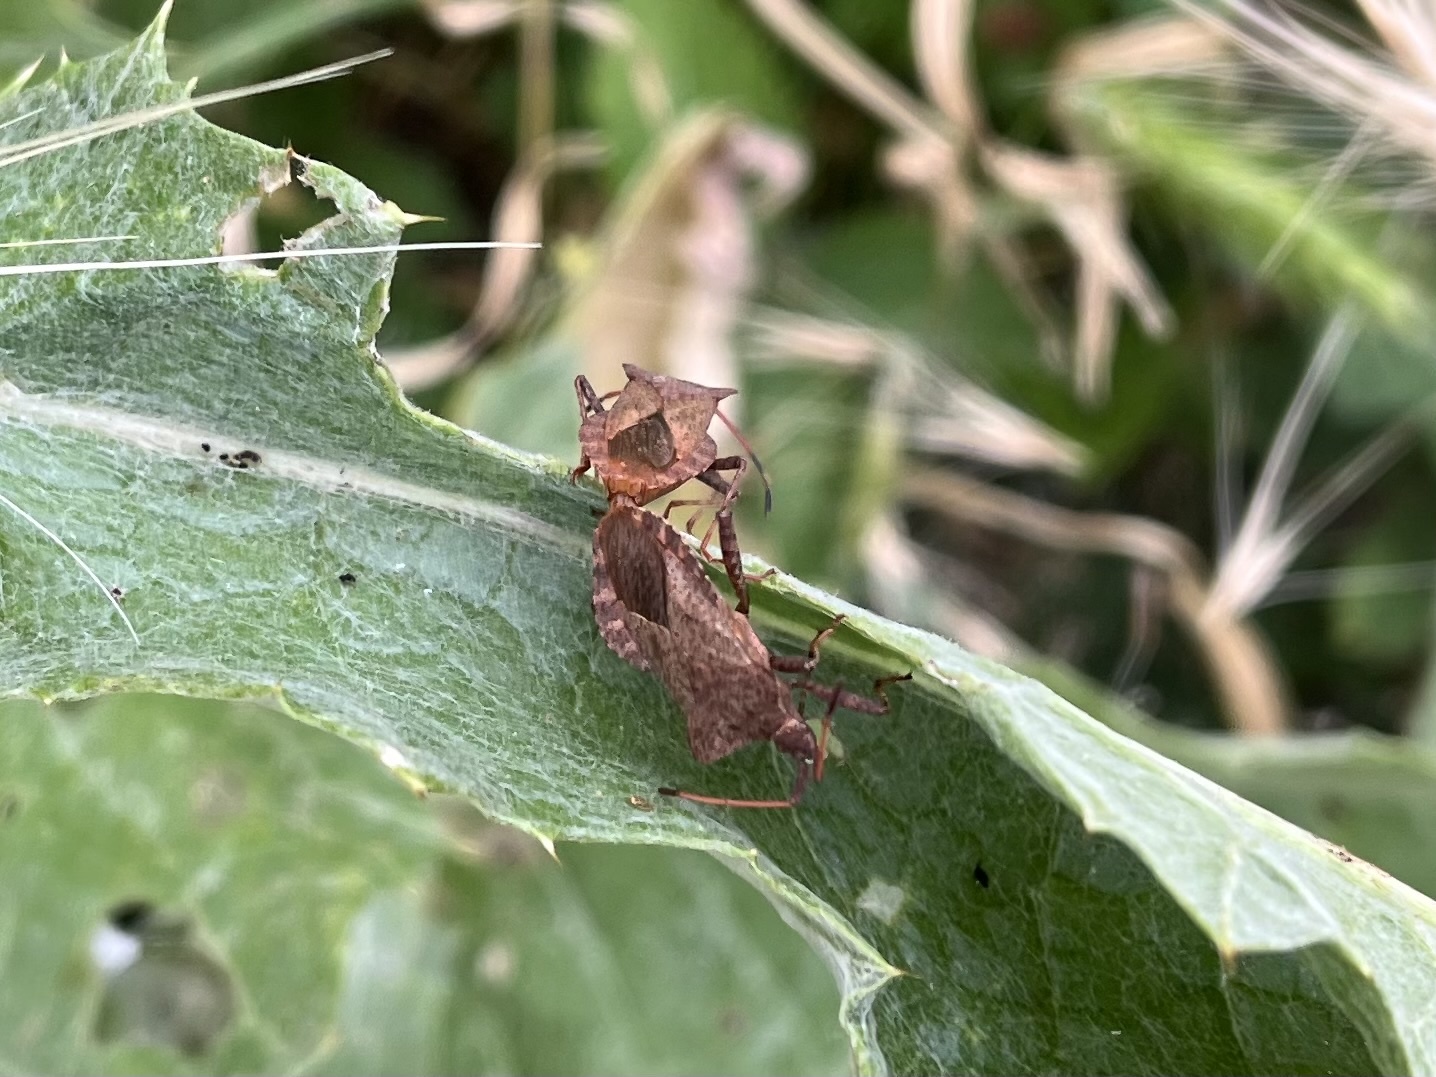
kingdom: Animalia
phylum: Arthropoda
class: Insecta
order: Hemiptera
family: Coreidae
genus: Coreus
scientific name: Coreus marginatus
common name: Dock bug
